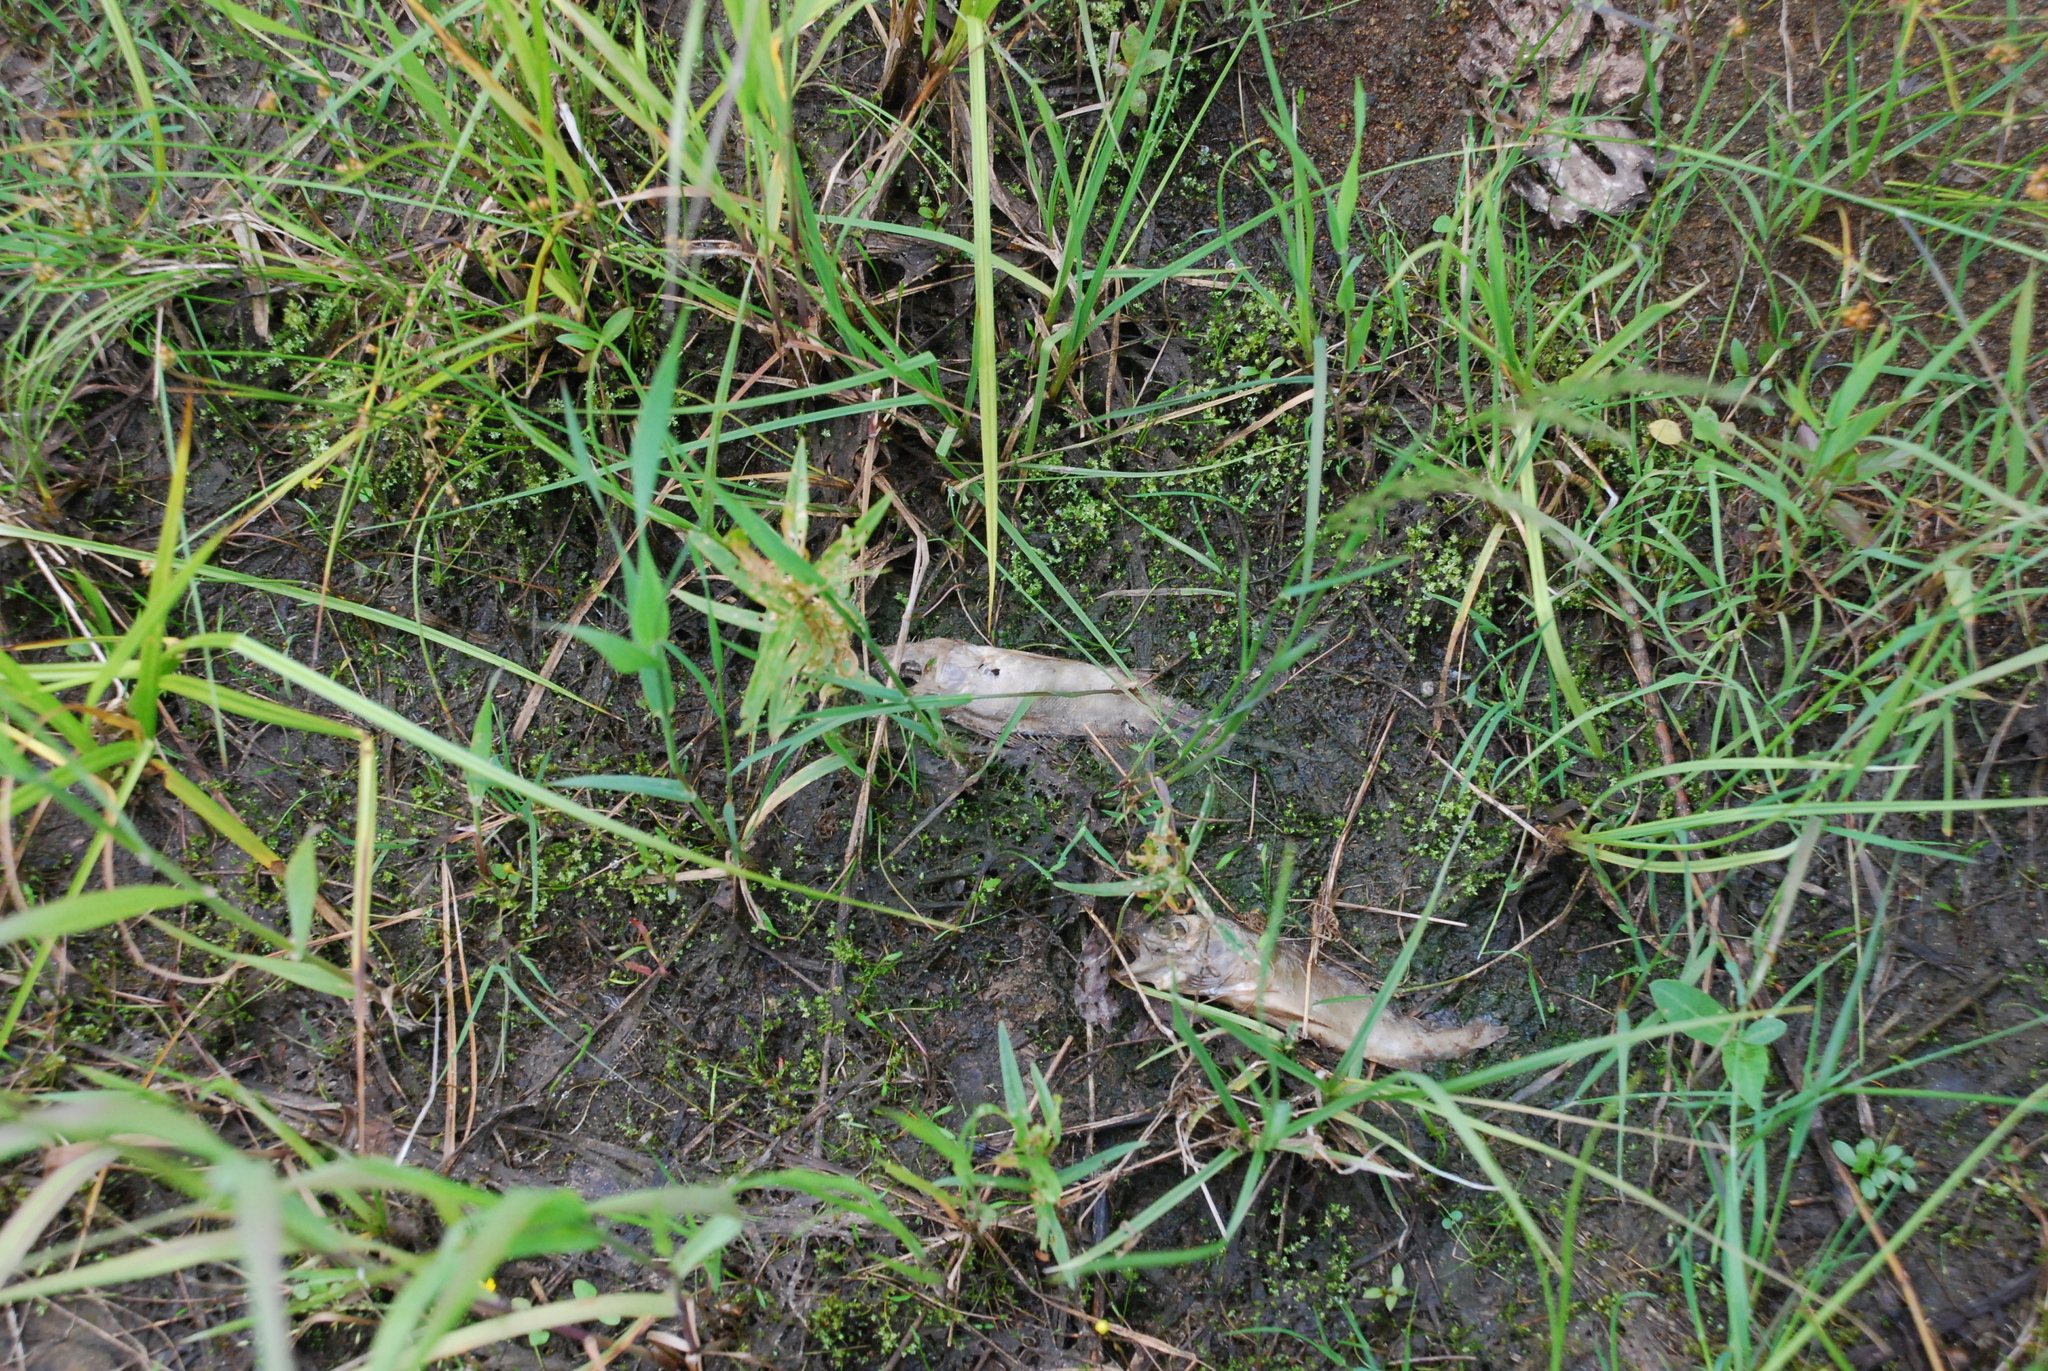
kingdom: Animalia
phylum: Chordata
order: Perciformes
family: Percidae
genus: Perca
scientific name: Perca fluviatilis
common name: Perch
